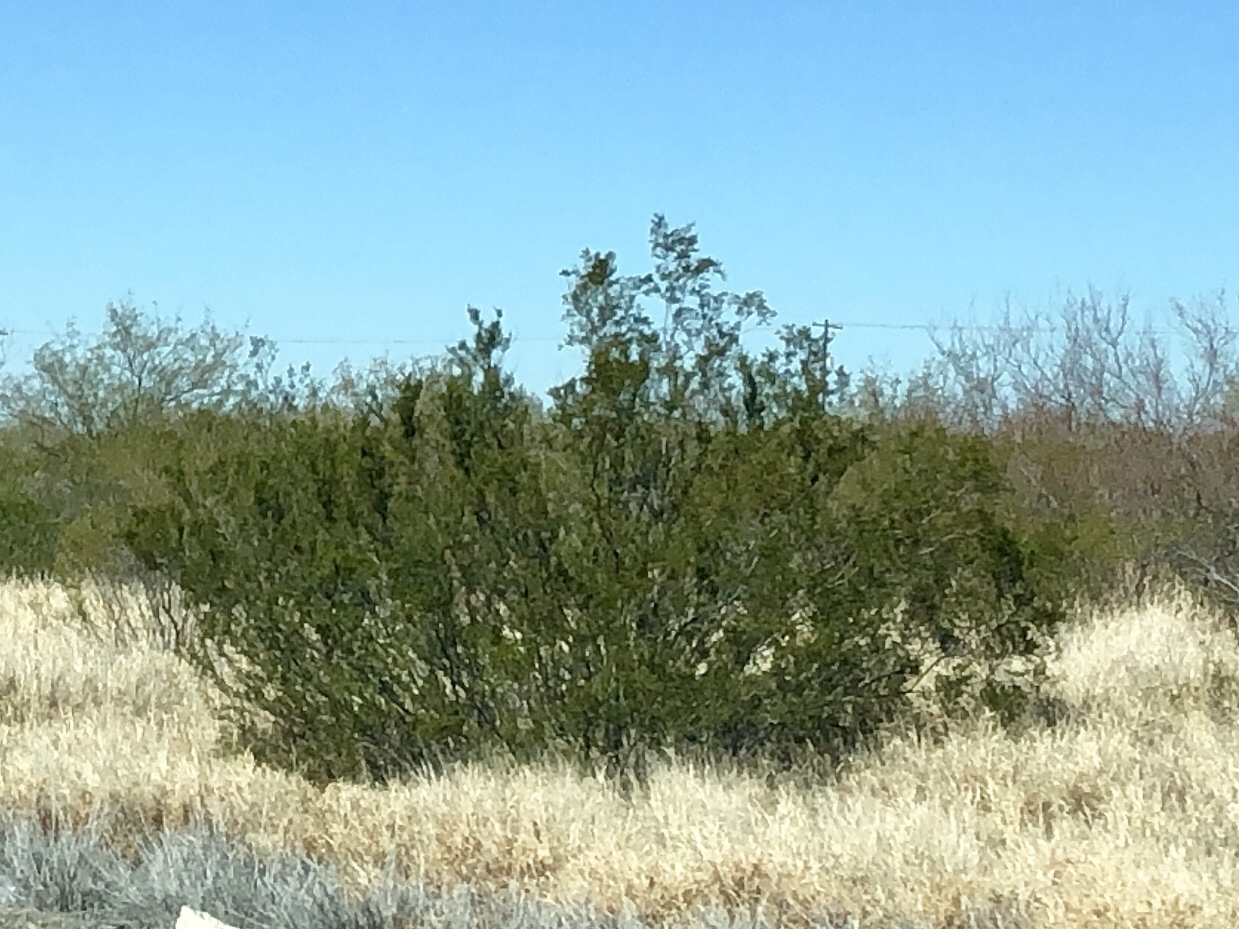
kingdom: Plantae
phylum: Tracheophyta
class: Magnoliopsida
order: Zygophyllales
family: Zygophyllaceae
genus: Larrea
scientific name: Larrea tridentata
